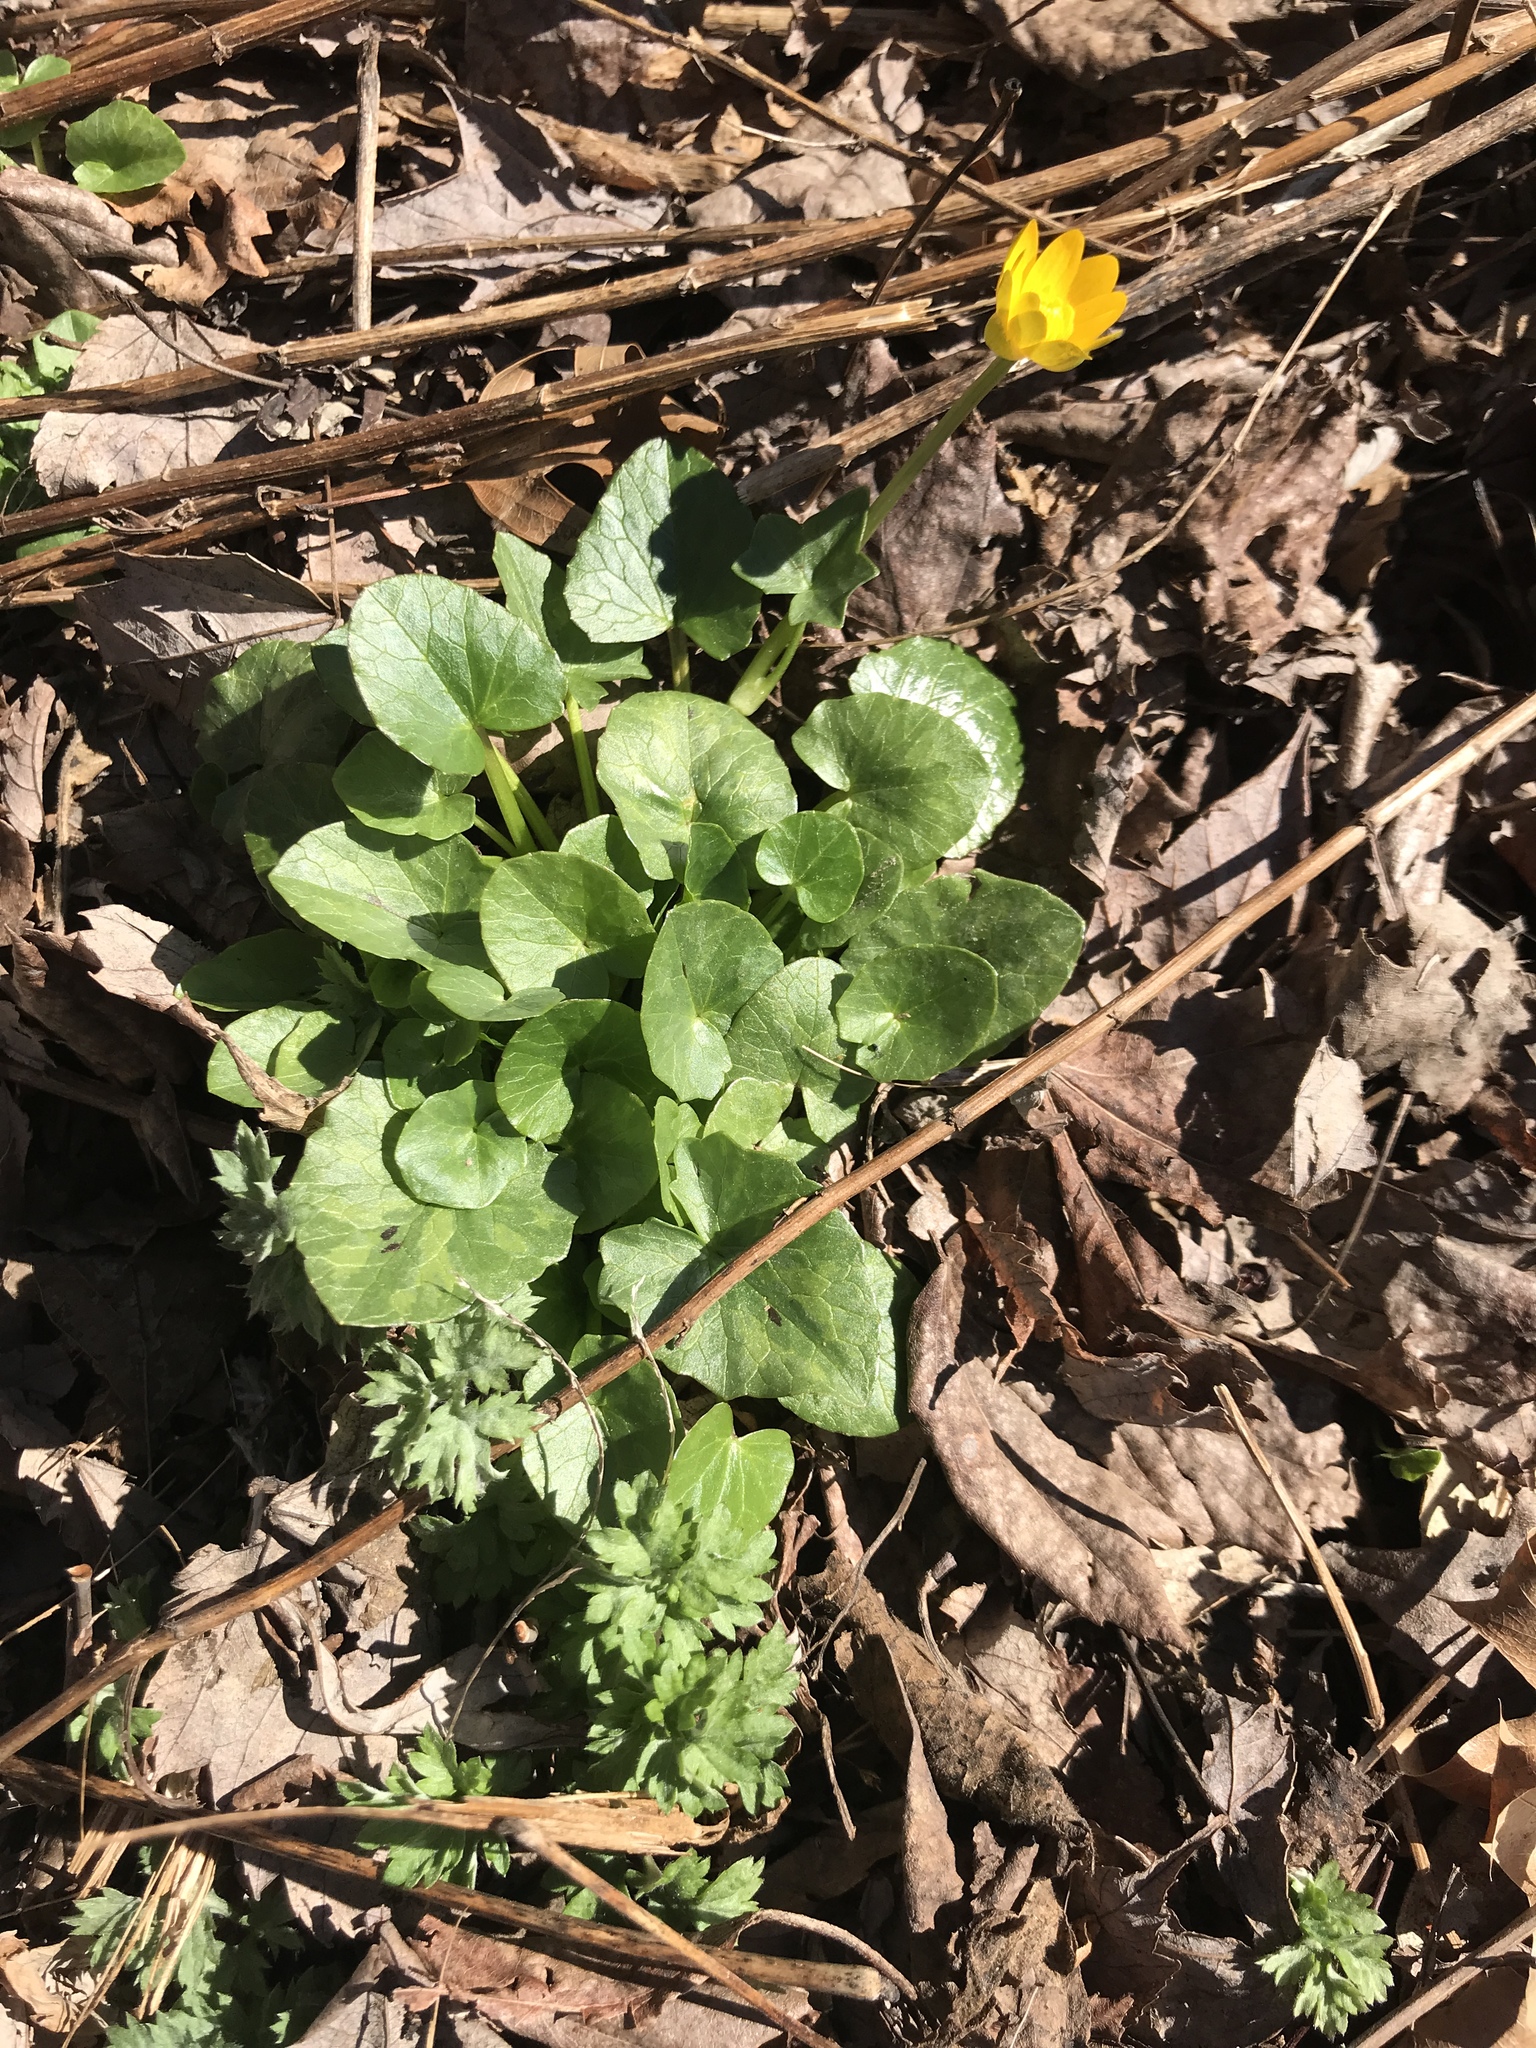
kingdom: Plantae
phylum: Tracheophyta
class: Magnoliopsida
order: Ranunculales
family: Ranunculaceae
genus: Ficaria
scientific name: Ficaria verna
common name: Lesser celandine
